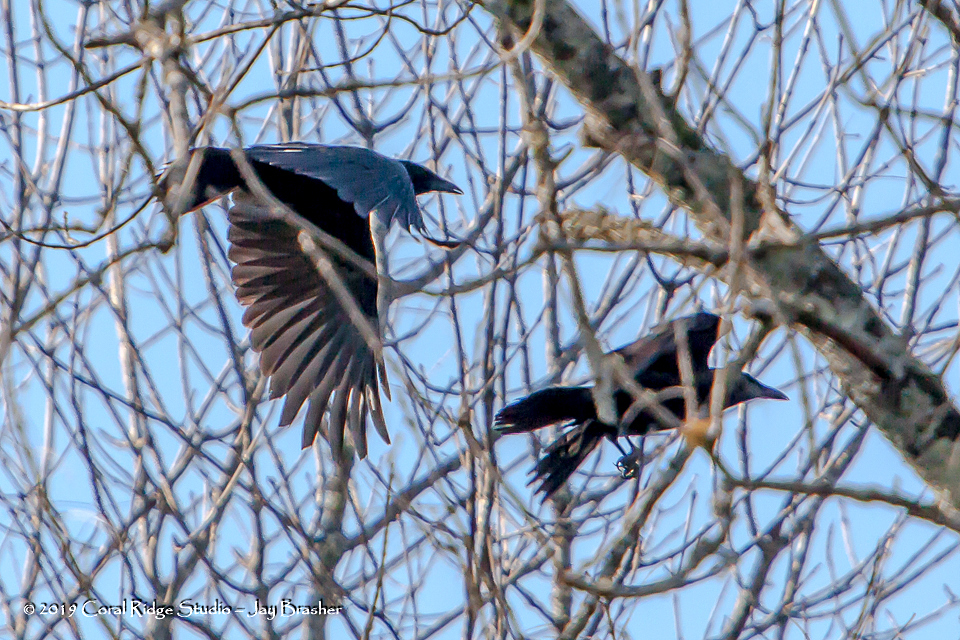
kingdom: Animalia
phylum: Chordata
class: Aves
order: Passeriformes
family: Corvidae
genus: Corvus
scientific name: Corvus brachyrhynchos
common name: American crow
